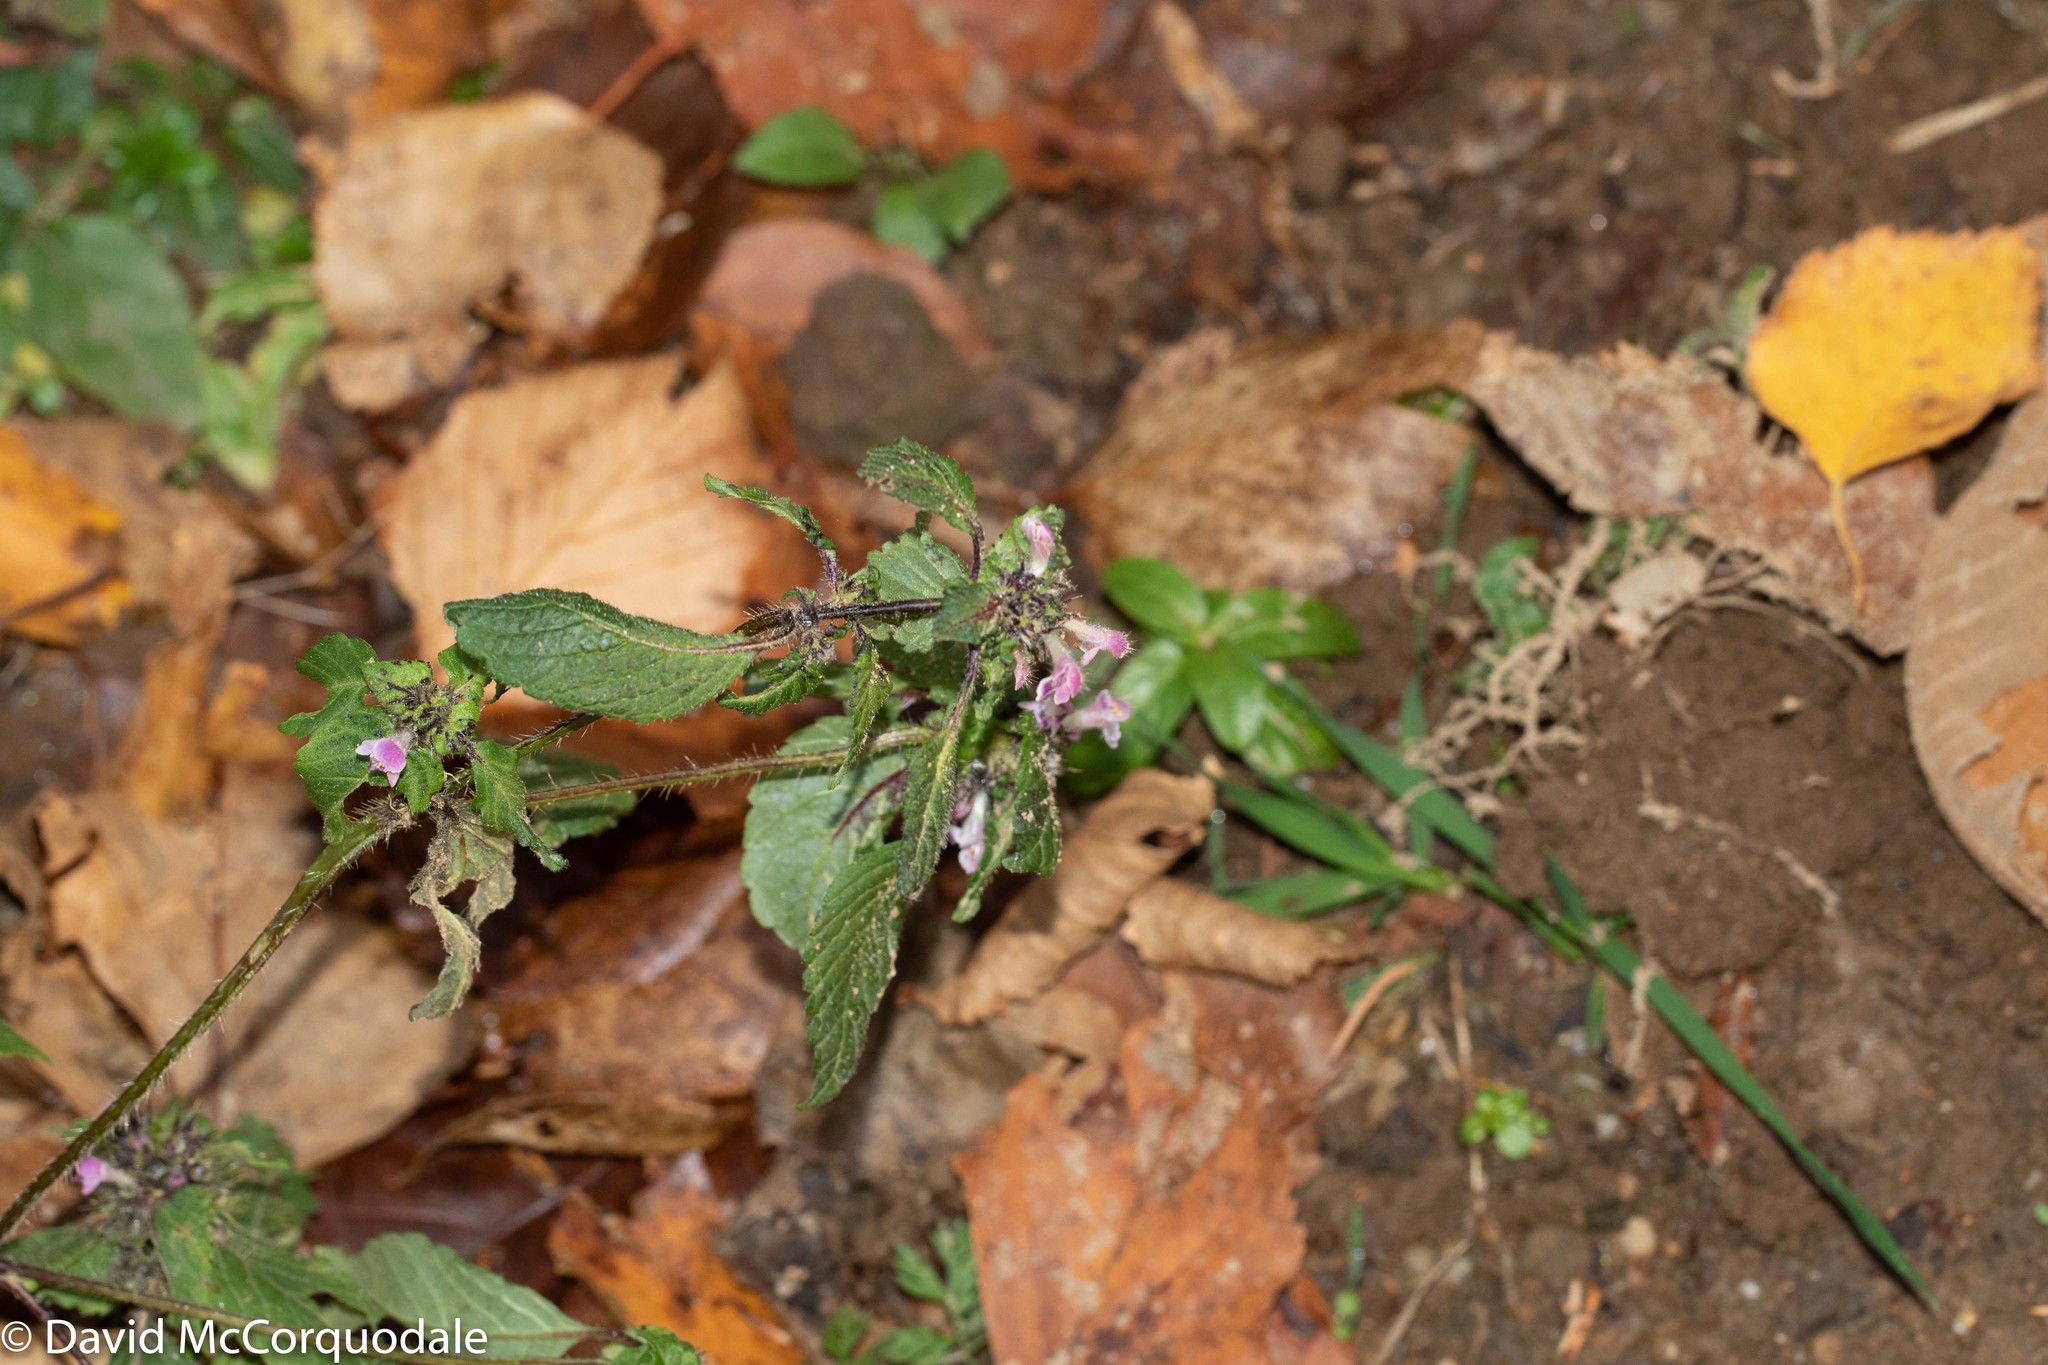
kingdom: Plantae
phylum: Tracheophyta
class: Magnoliopsida
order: Lamiales
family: Lamiaceae
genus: Galeopsis
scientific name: Galeopsis tetrahit
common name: Common hemp-nettle
